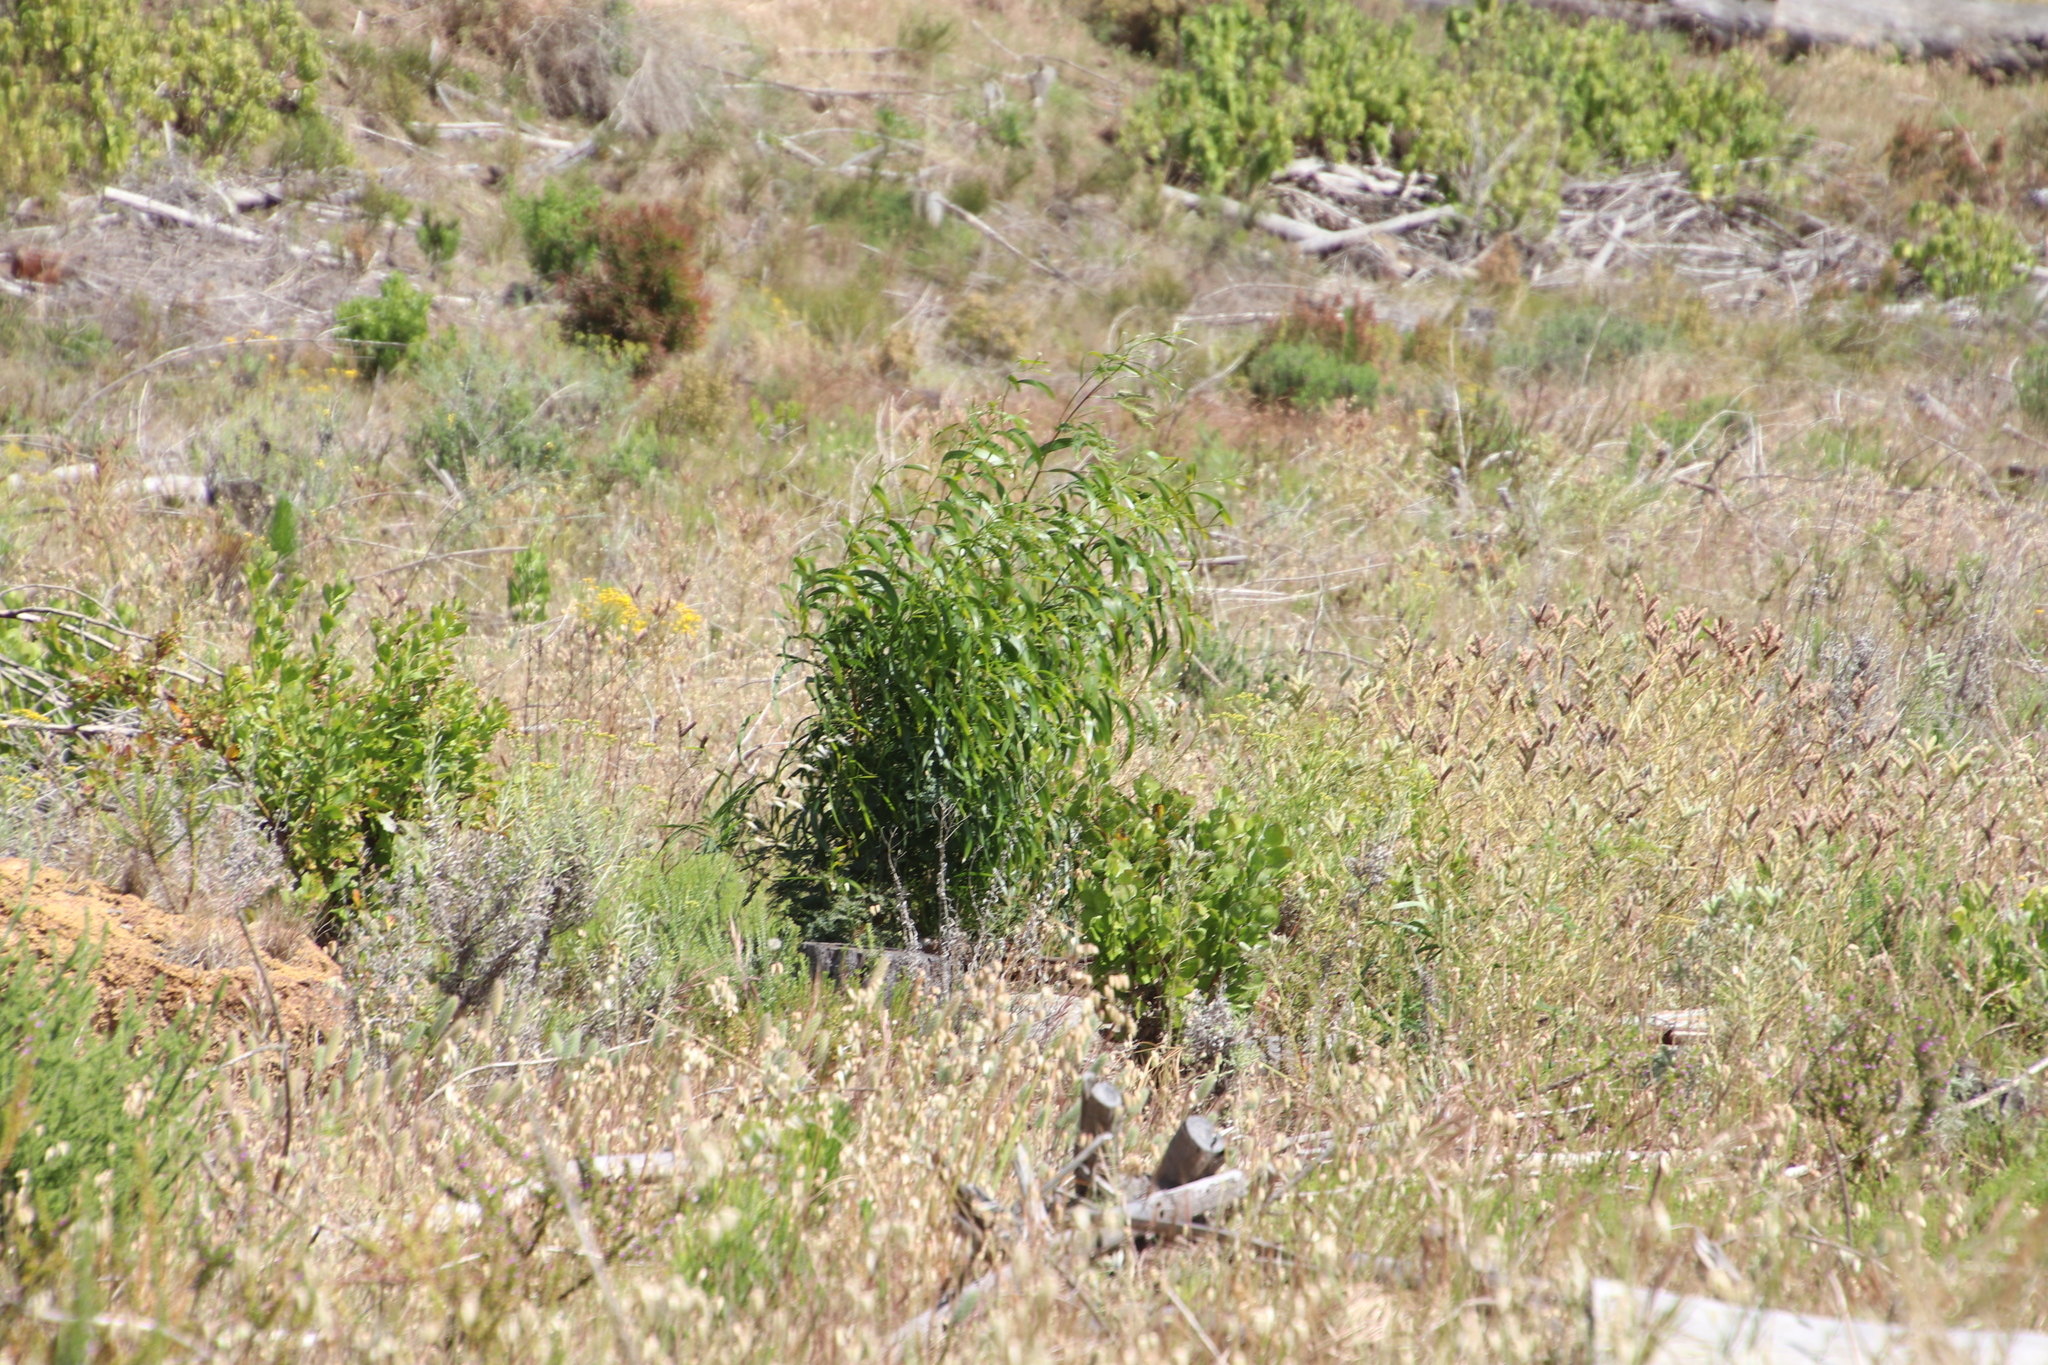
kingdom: Plantae
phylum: Tracheophyta
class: Magnoliopsida
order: Fabales
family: Fabaceae
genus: Acacia
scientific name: Acacia implexa
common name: Black wattle
